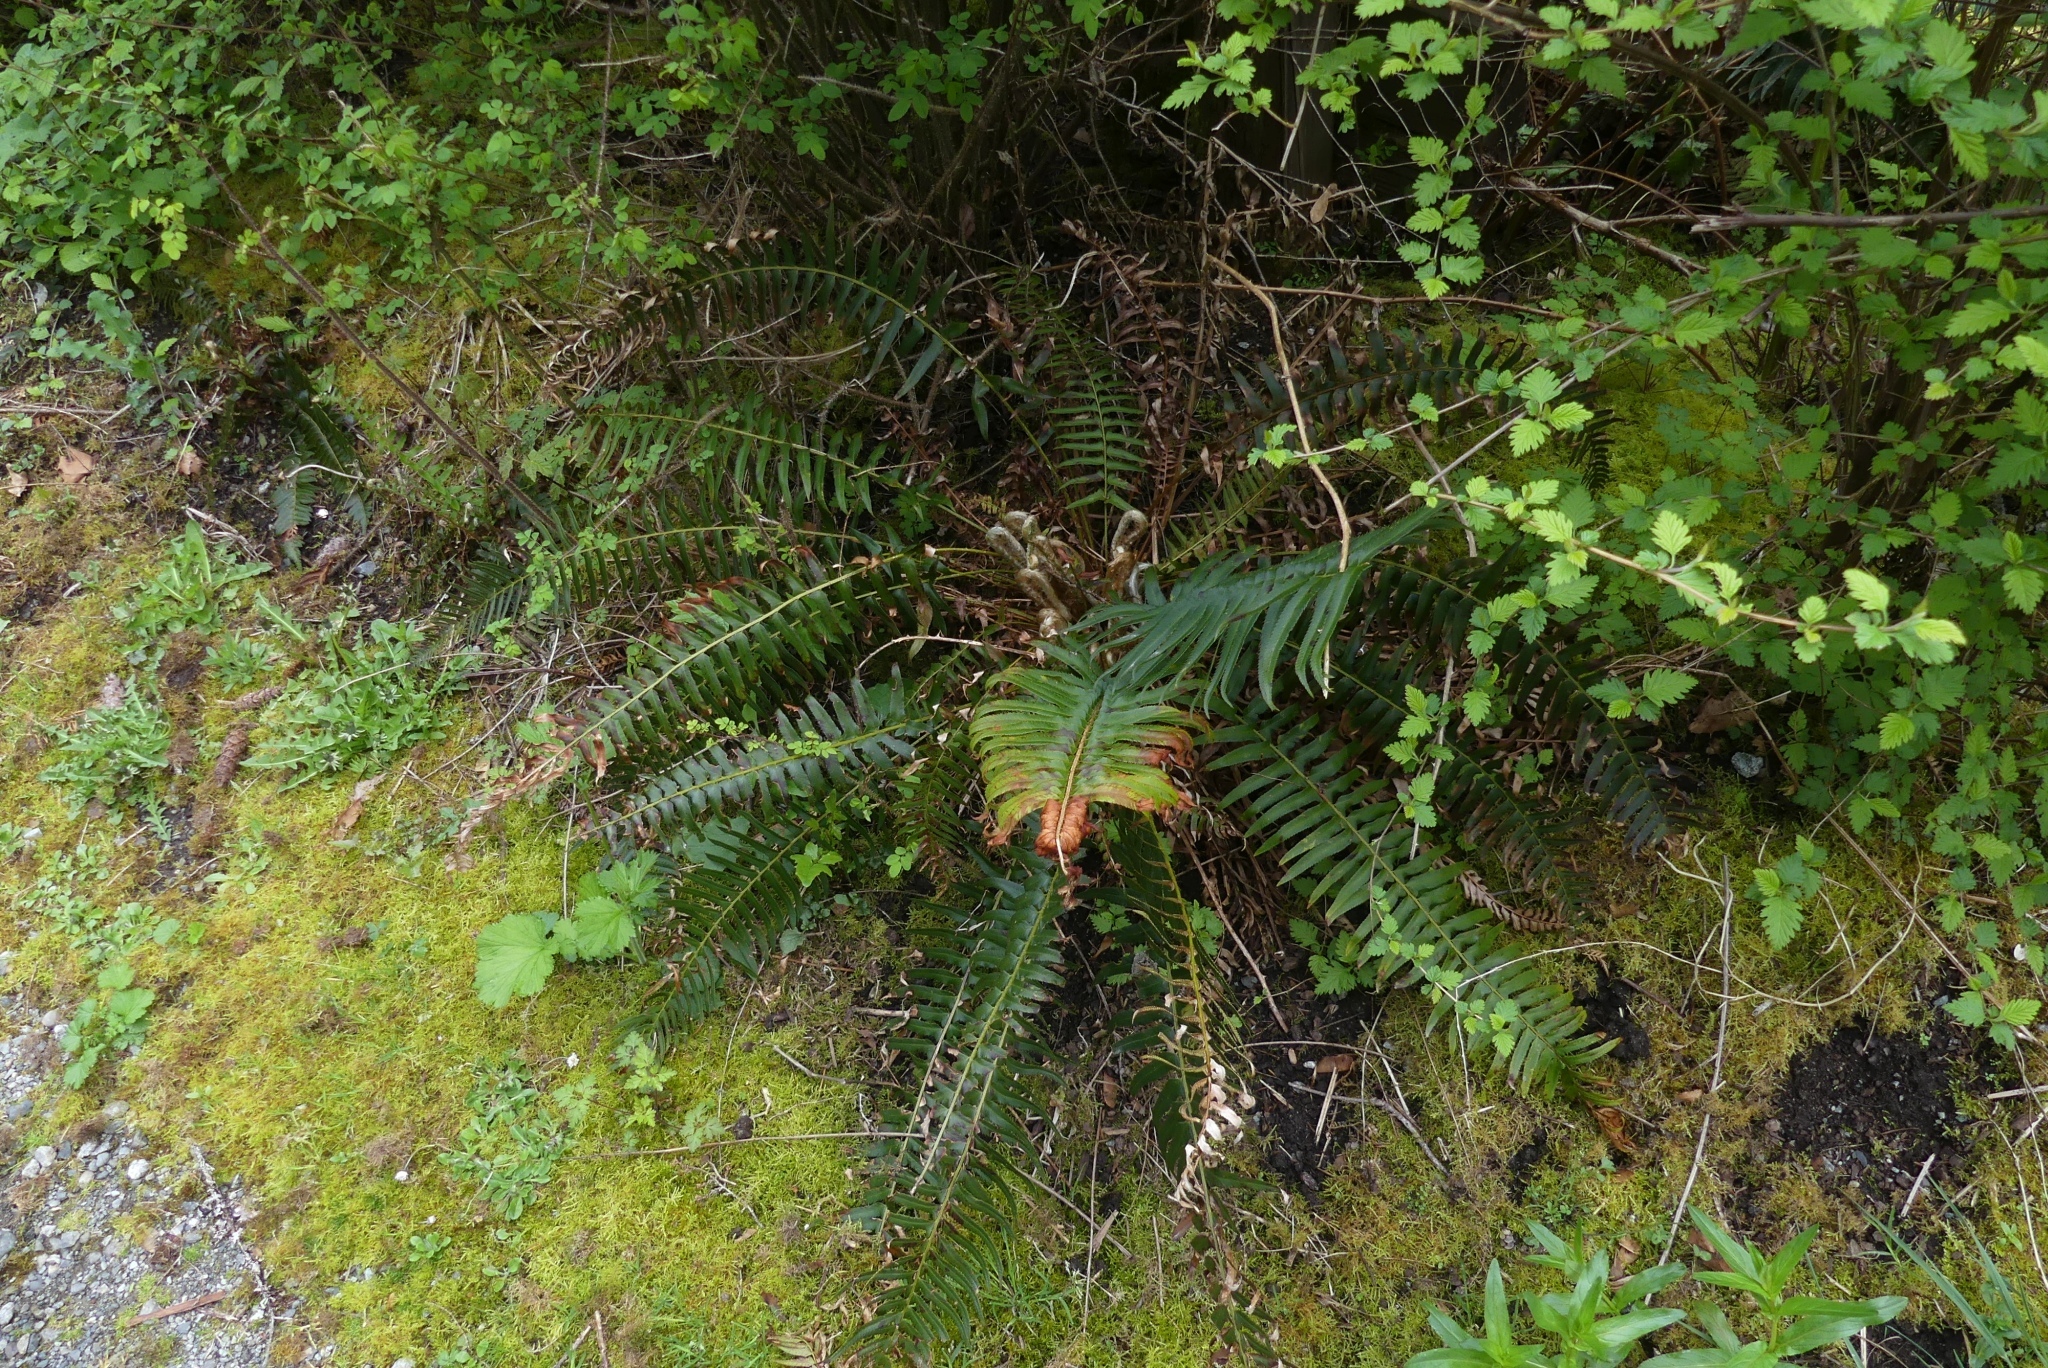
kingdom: Plantae
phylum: Tracheophyta
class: Polypodiopsida
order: Polypodiales
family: Dryopteridaceae
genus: Polystichum
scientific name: Polystichum munitum
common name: Western sword-fern
